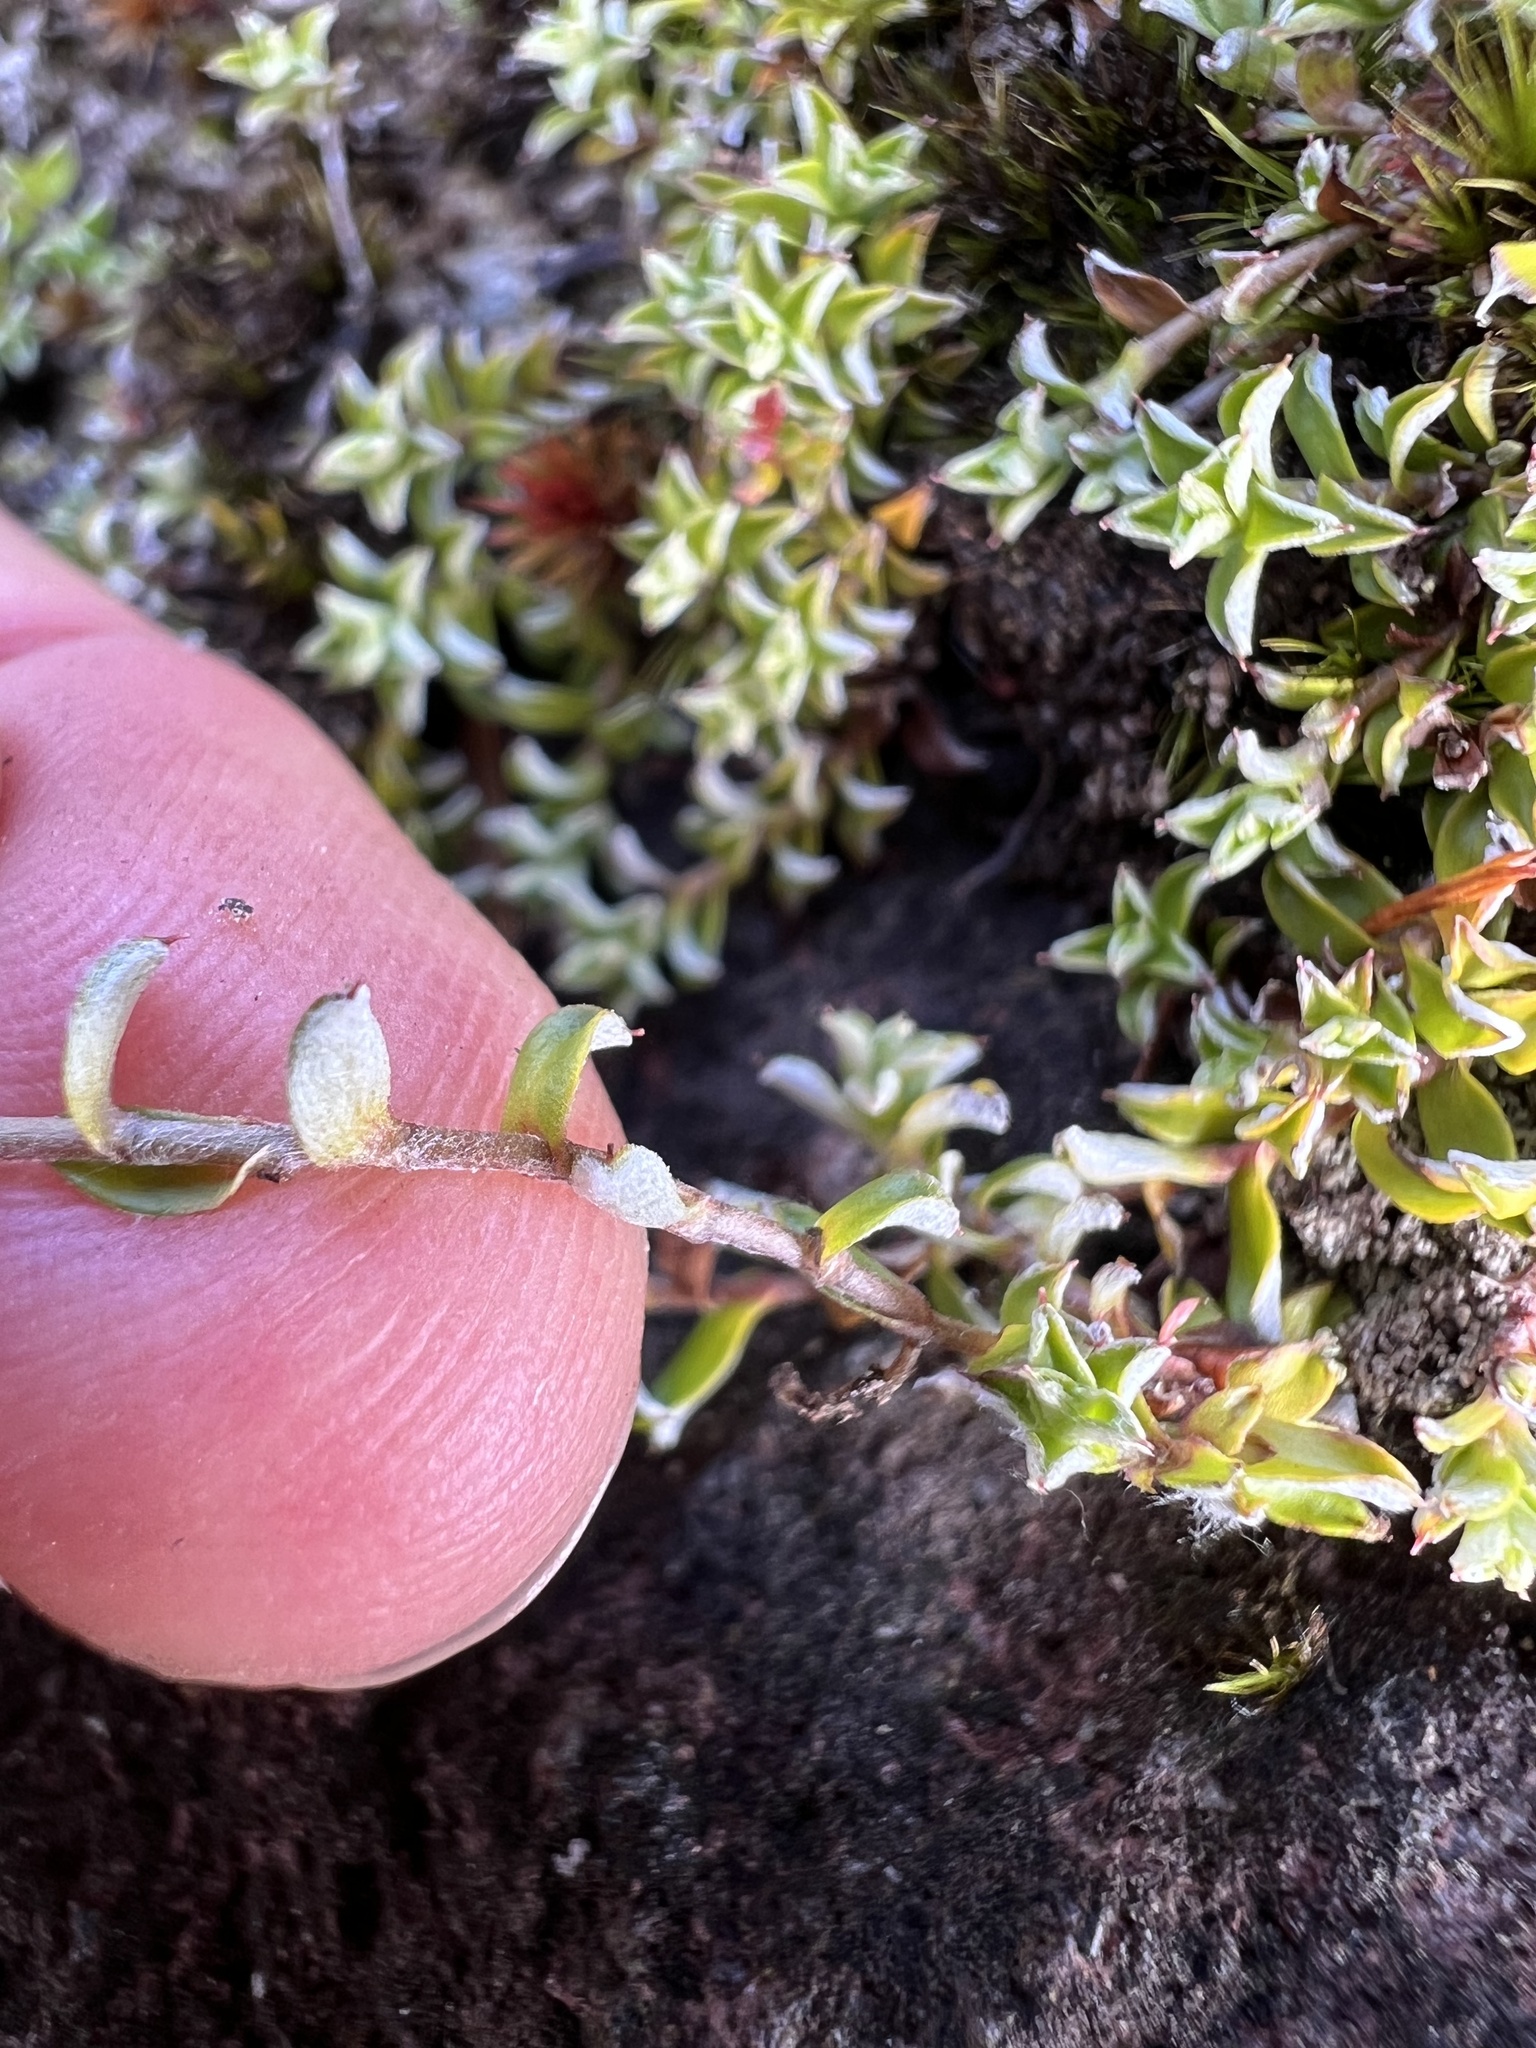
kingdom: Plantae
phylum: Tracheophyta
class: Magnoliopsida
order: Asterales
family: Asteraceae
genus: Helichrysum
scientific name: Helichrysum filicaule
